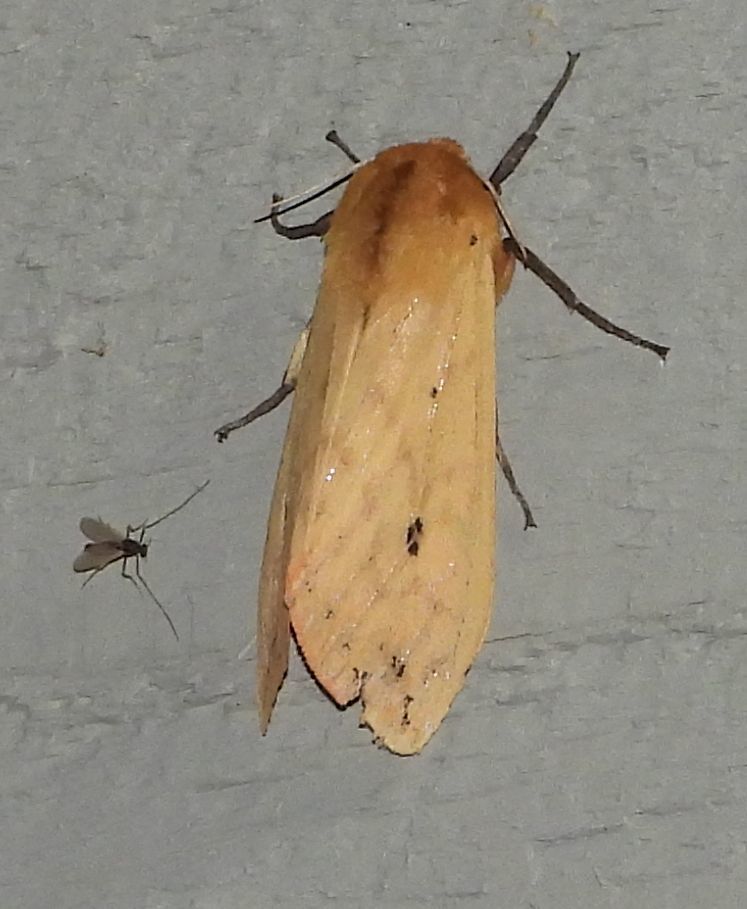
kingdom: Animalia
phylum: Arthropoda
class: Insecta
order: Lepidoptera
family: Erebidae
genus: Pyrrharctia
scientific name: Pyrrharctia isabella
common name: Isabella tiger moth
